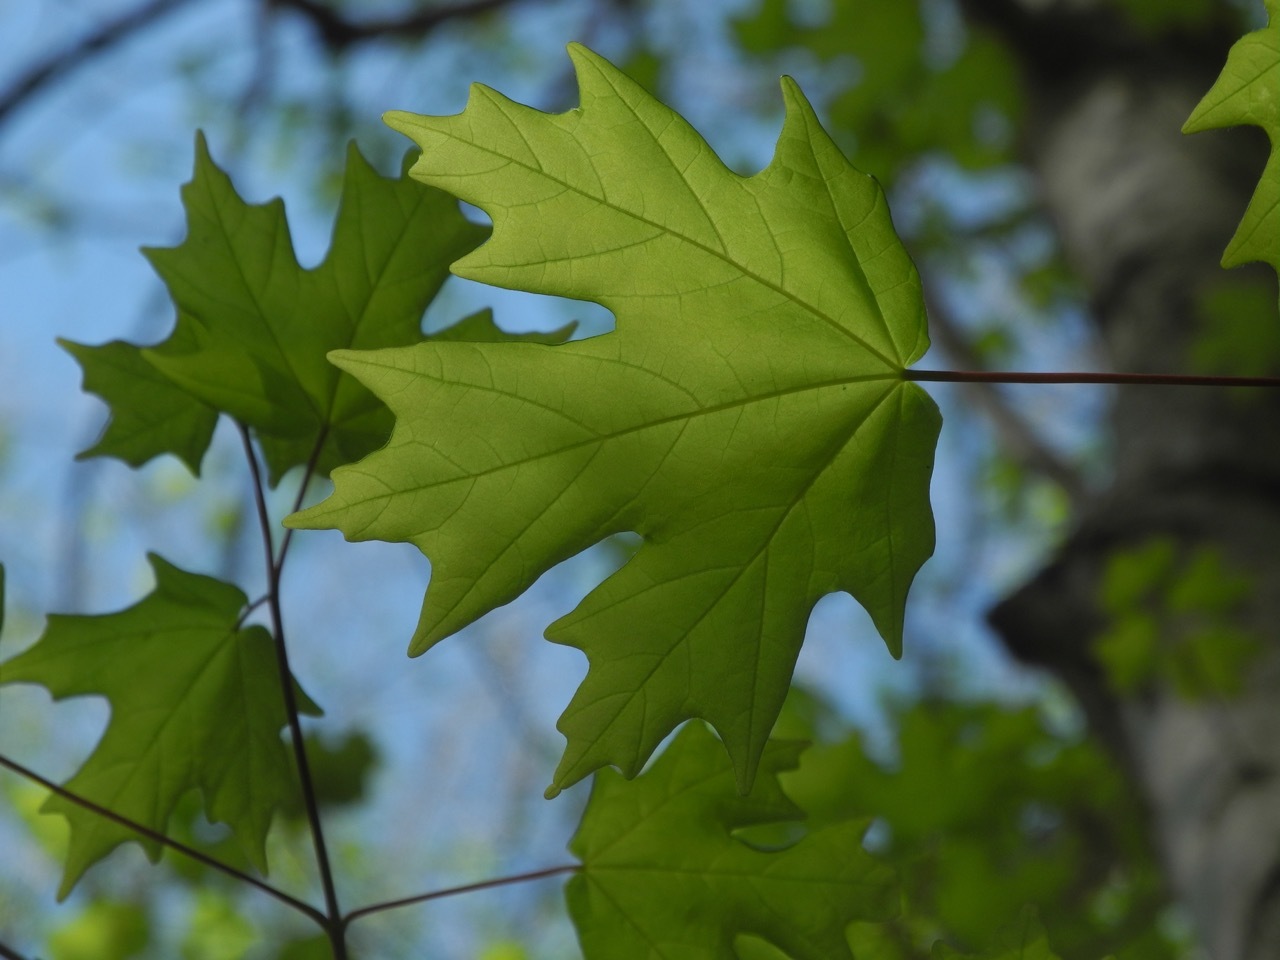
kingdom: Plantae
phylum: Tracheophyta
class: Magnoliopsida
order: Sapindales
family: Sapindaceae
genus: Acer
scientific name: Acer floridanum
